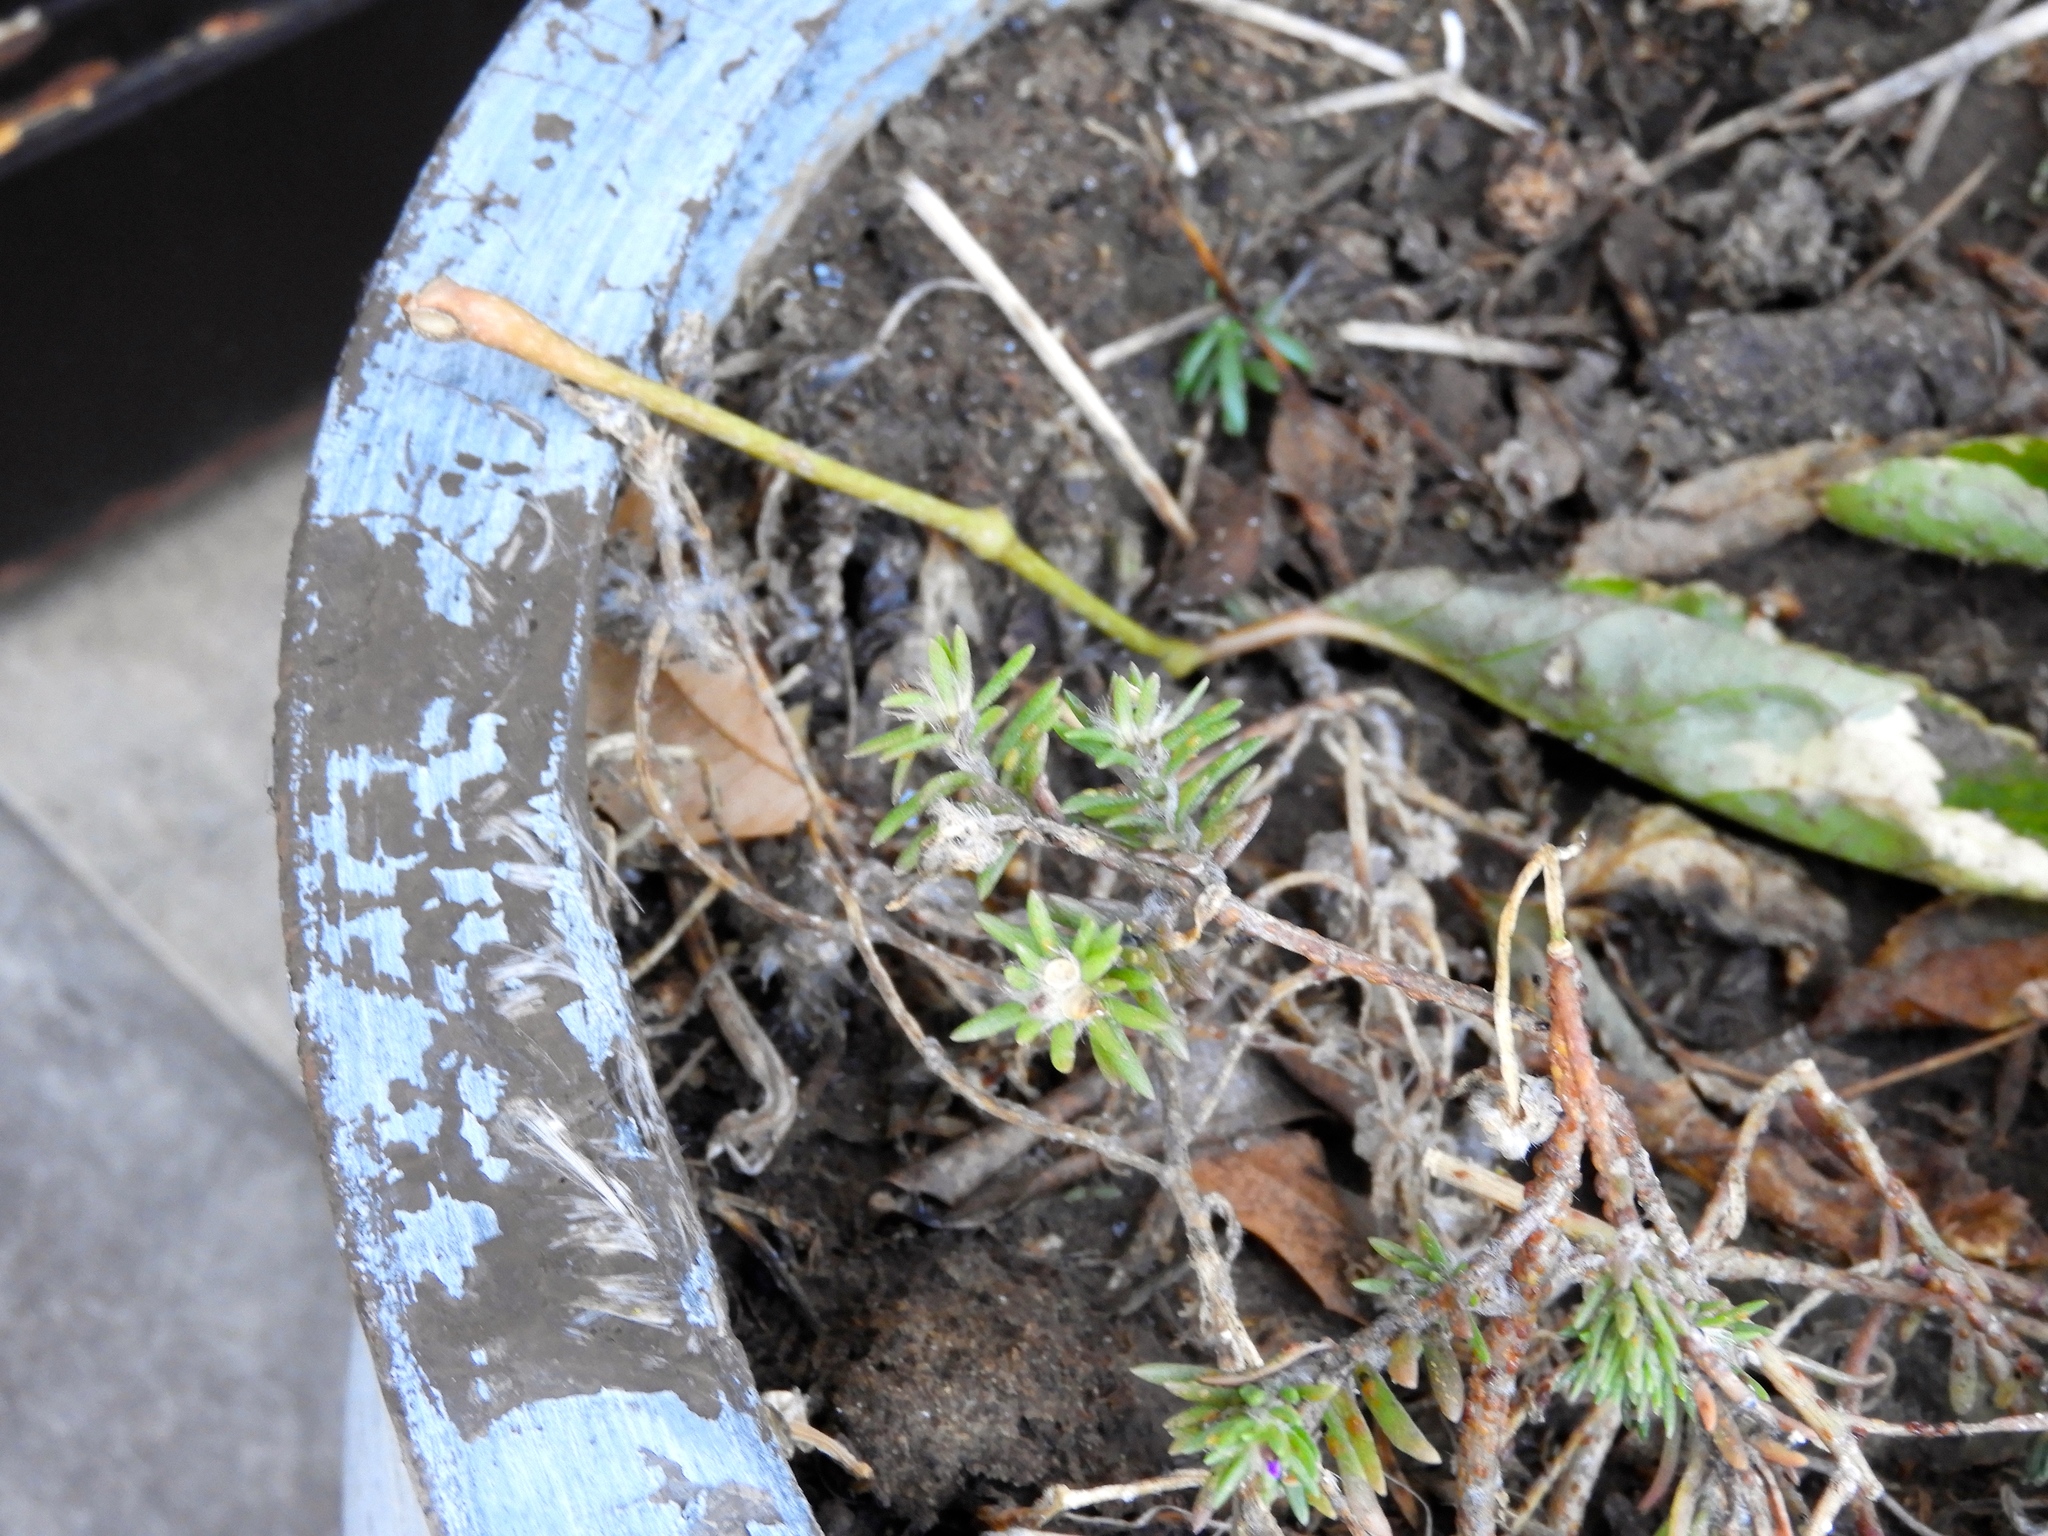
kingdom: Plantae
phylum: Tracheophyta
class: Magnoliopsida
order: Caryophyllales
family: Portulacaceae
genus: Portulaca
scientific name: Portulaca pilosa
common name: Kiss me quick
